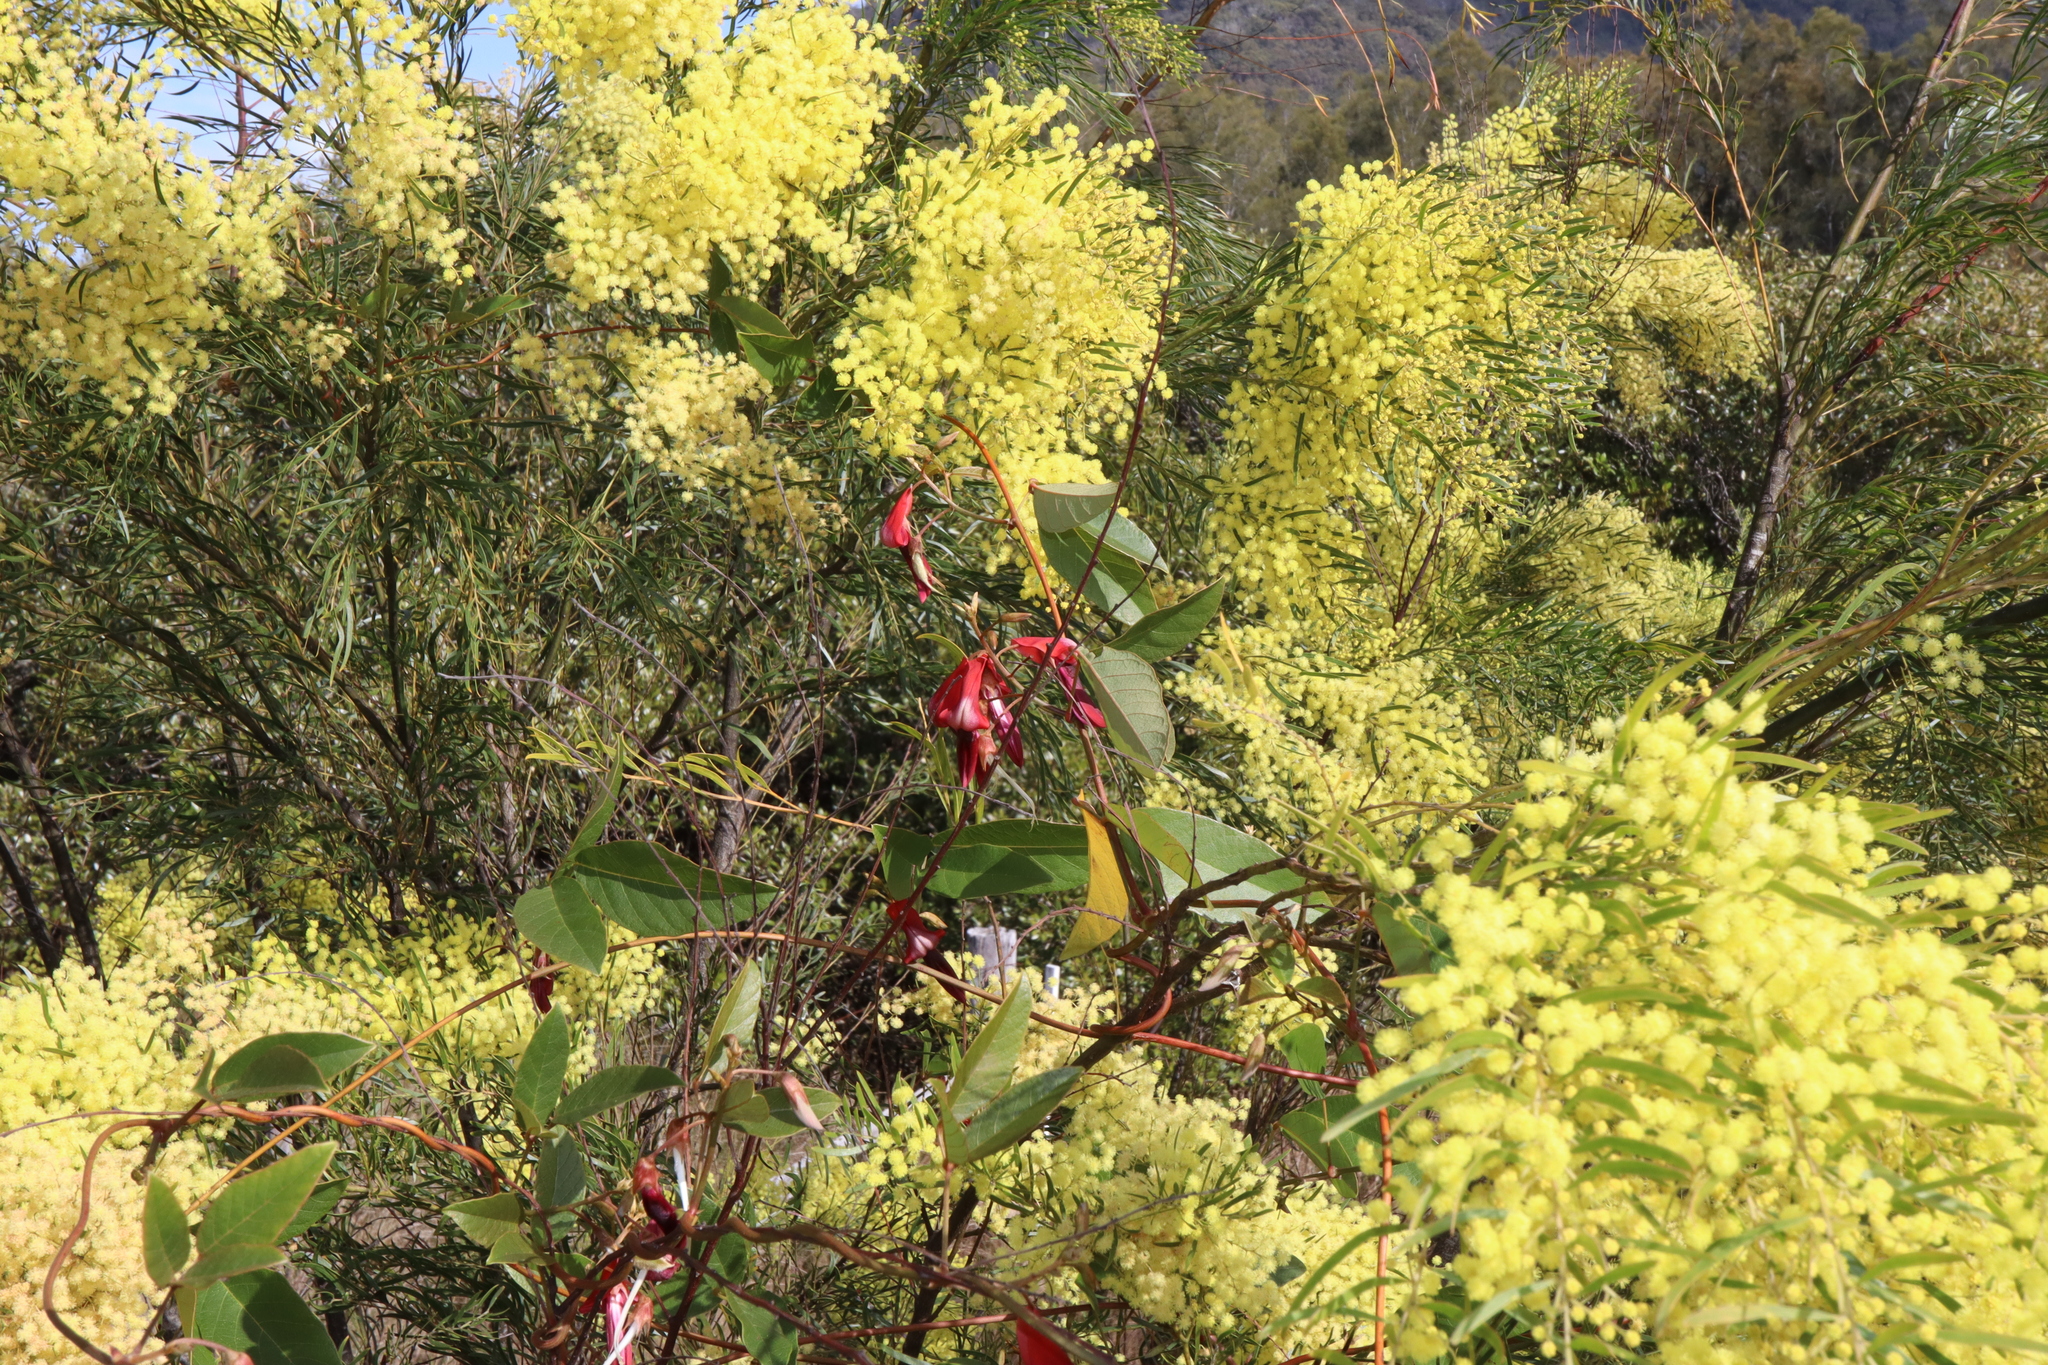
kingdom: Plantae
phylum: Tracheophyta
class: Magnoliopsida
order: Fabales
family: Fabaceae
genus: Kennedia
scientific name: Kennedia rubicunda
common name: Red kennedy-pea
